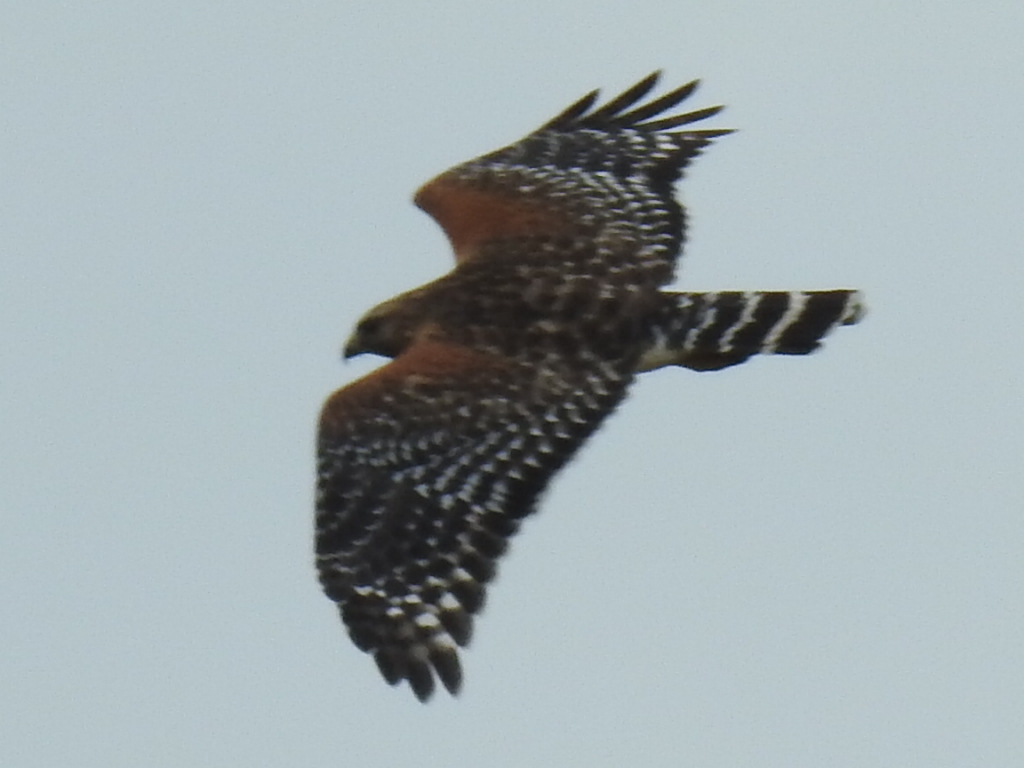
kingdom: Animalia
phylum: Chordata
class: Aves
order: Accipitriformes
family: Accipitridae
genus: Buteo
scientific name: Buteo lineatus
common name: Red-shouldered hawk
